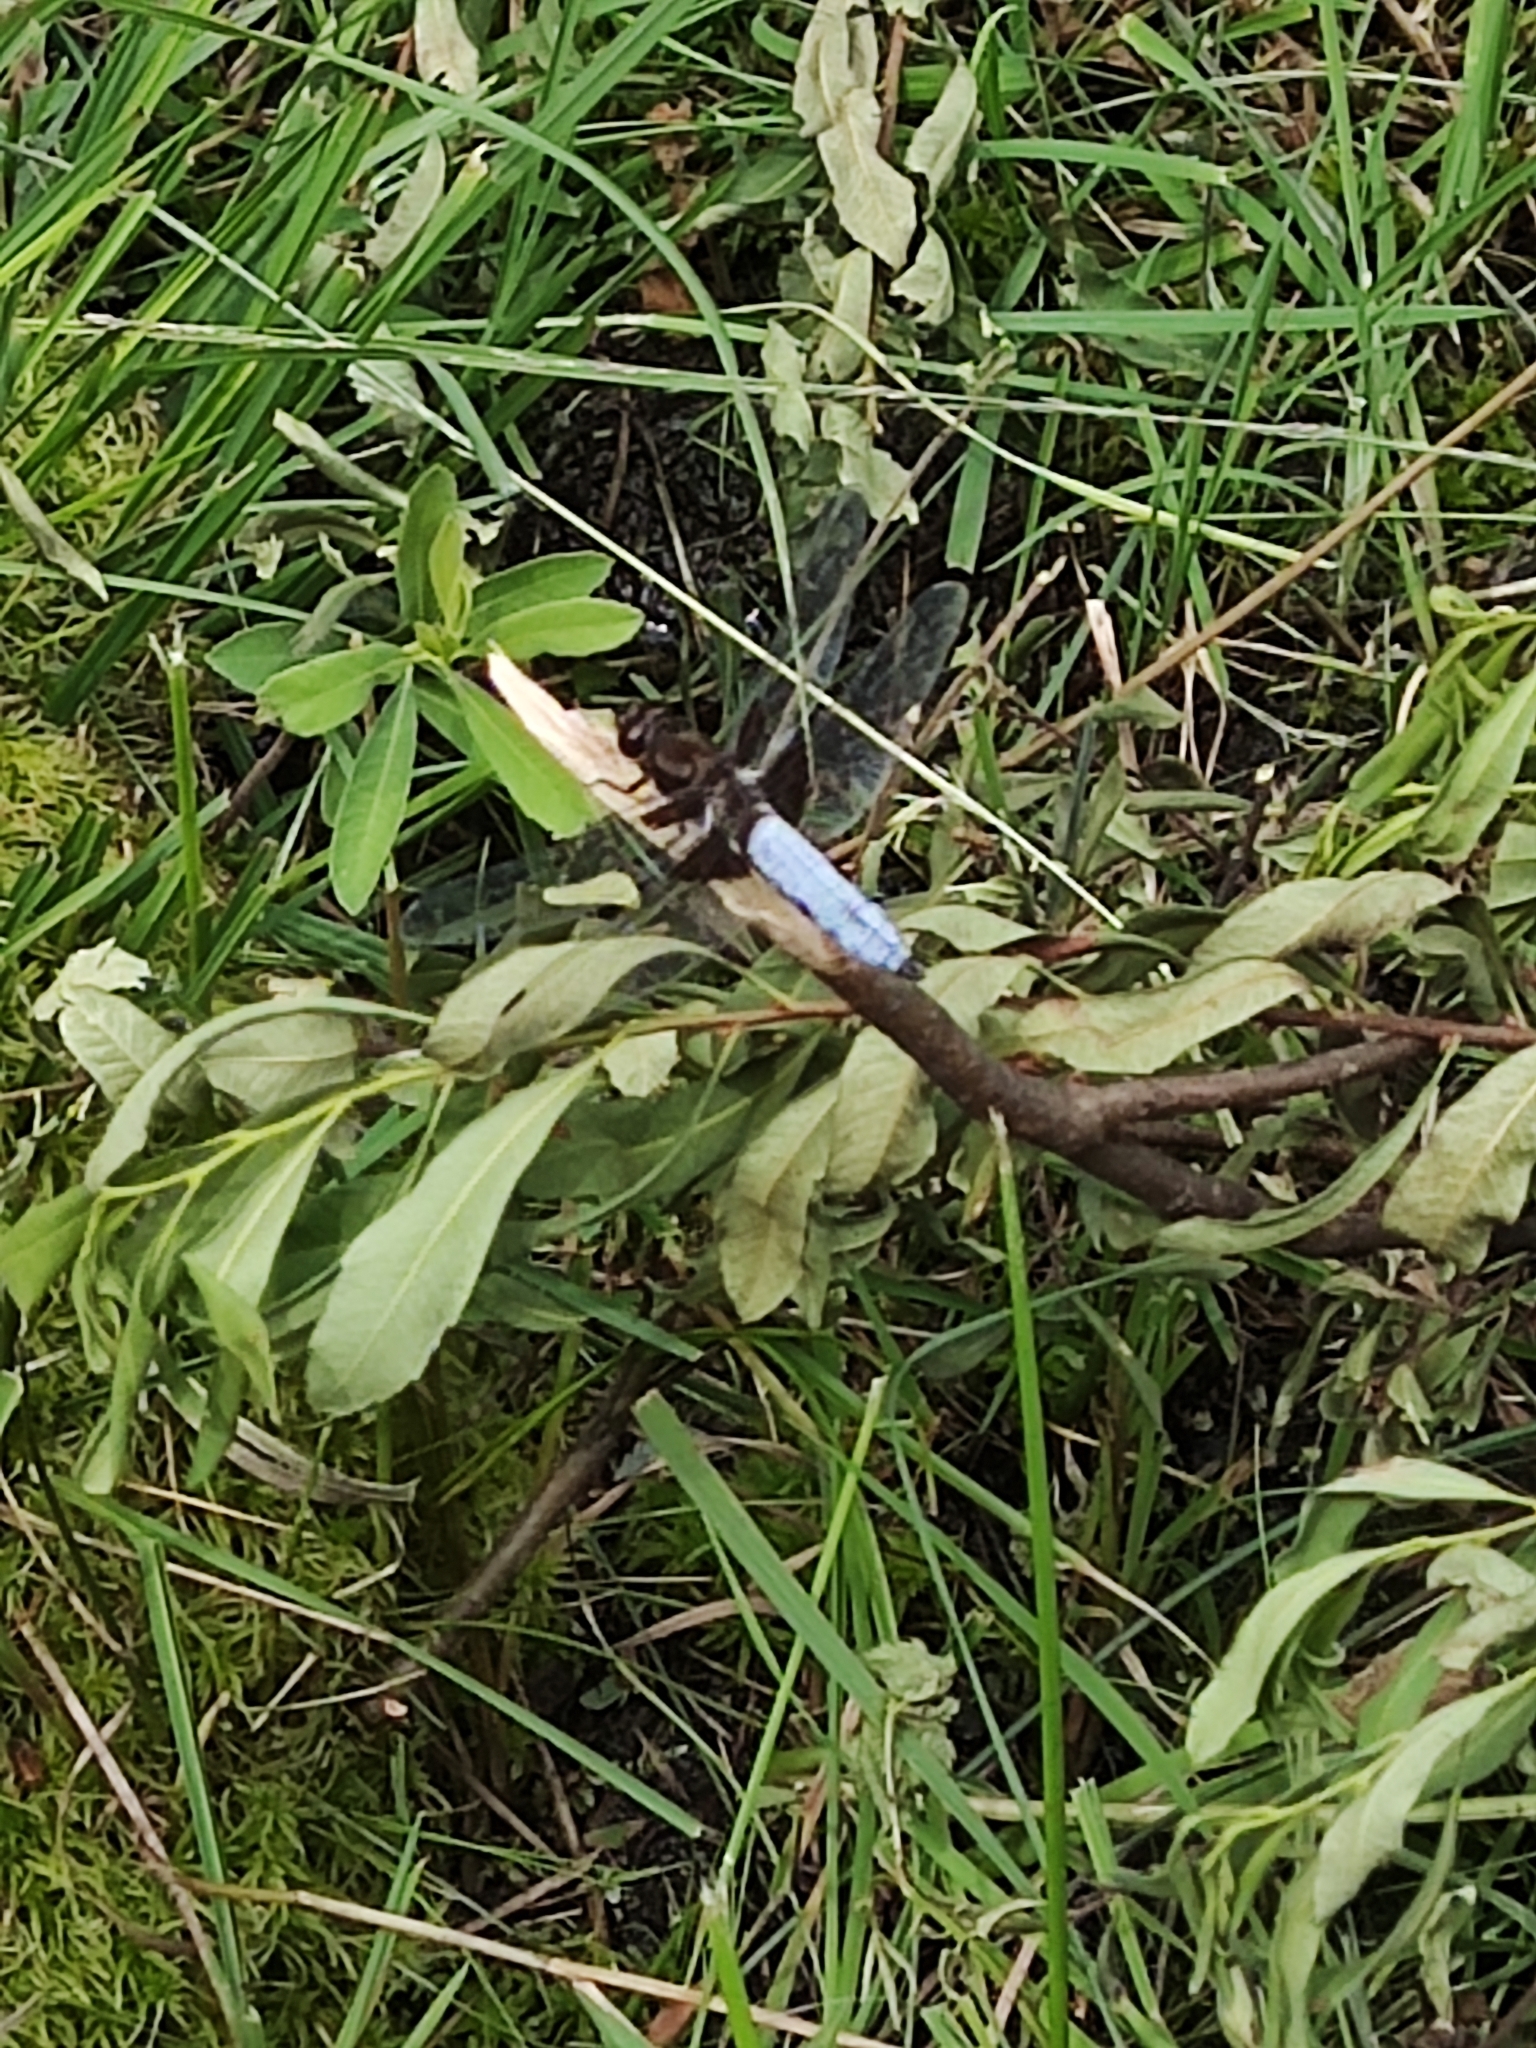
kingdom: Animalia
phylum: Arthropoda
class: Insecta
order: Odonata
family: Libellulidae
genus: Libellula
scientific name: Libellula depressa
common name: Broad-bodied chaser
